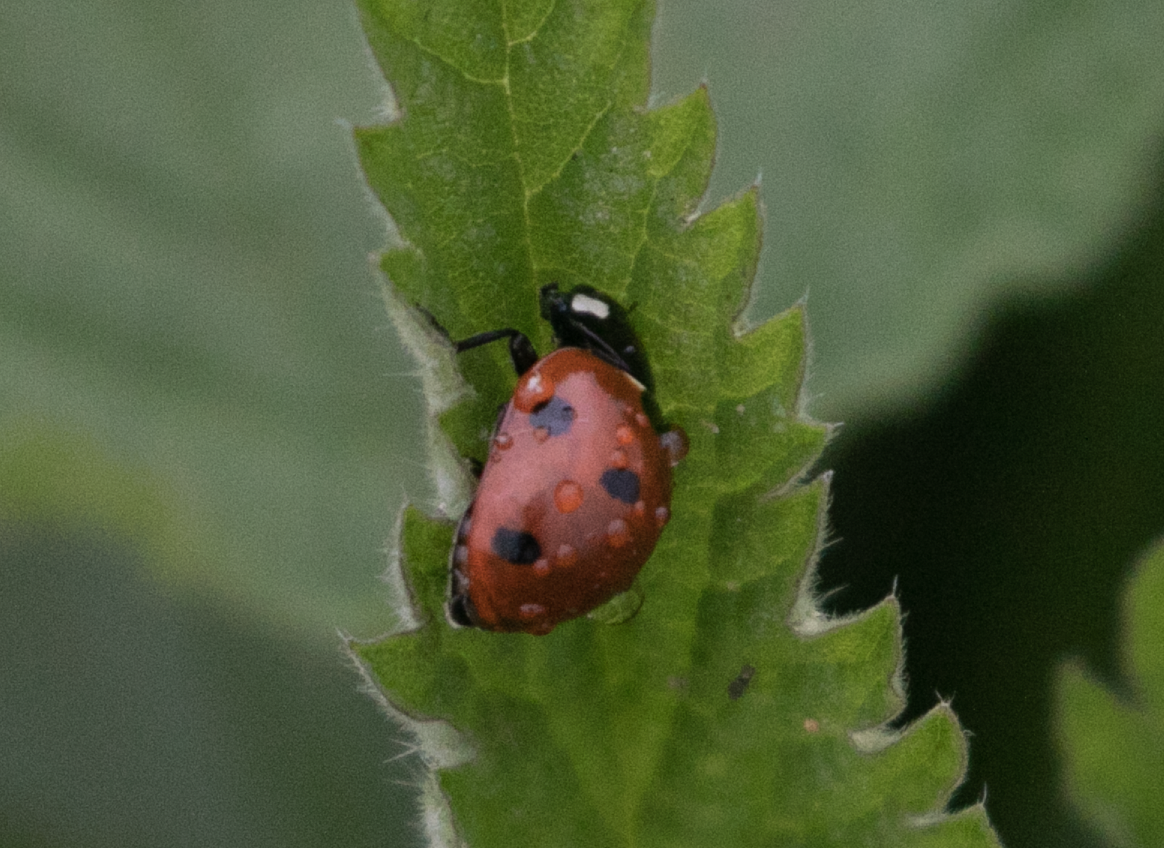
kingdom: Animalia
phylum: Arthropoda
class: Insecta
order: Coleoptera
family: Coccinellidae
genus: Coccinella
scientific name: Coccinella septempunctata
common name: Sevenspotted lady beetle
